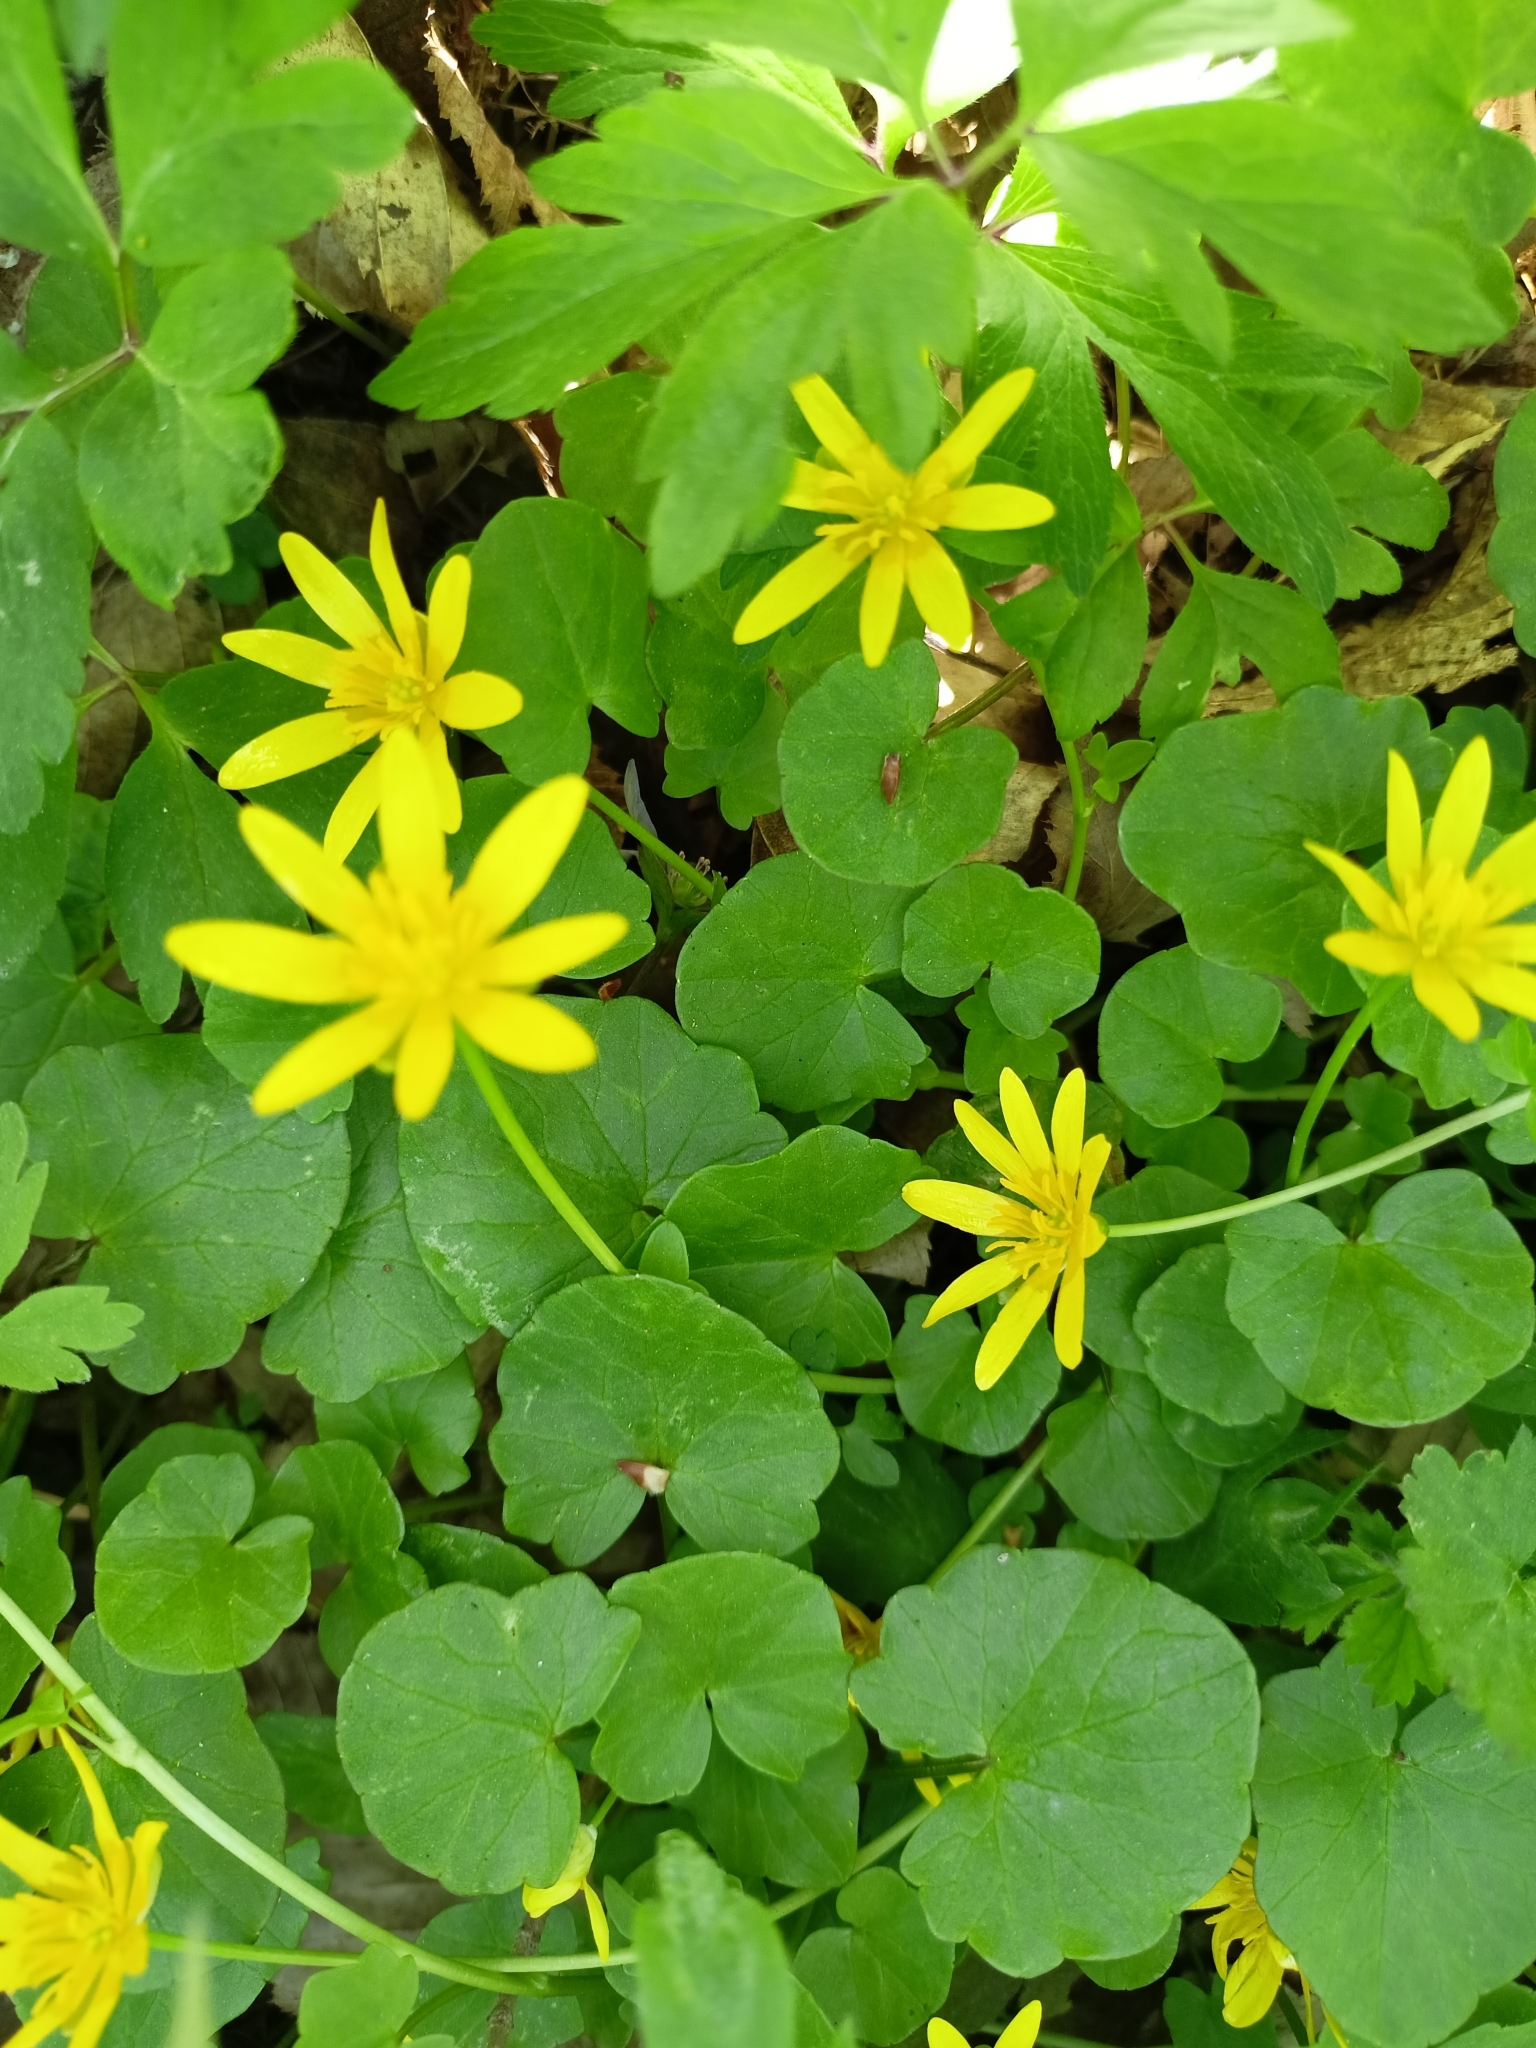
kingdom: Plantae
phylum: Tracheophyta
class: Magnoliopsida
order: Ranunculales
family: Ranunculaceae
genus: Ficaria
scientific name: Ficaria verna
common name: Lesser celandine
